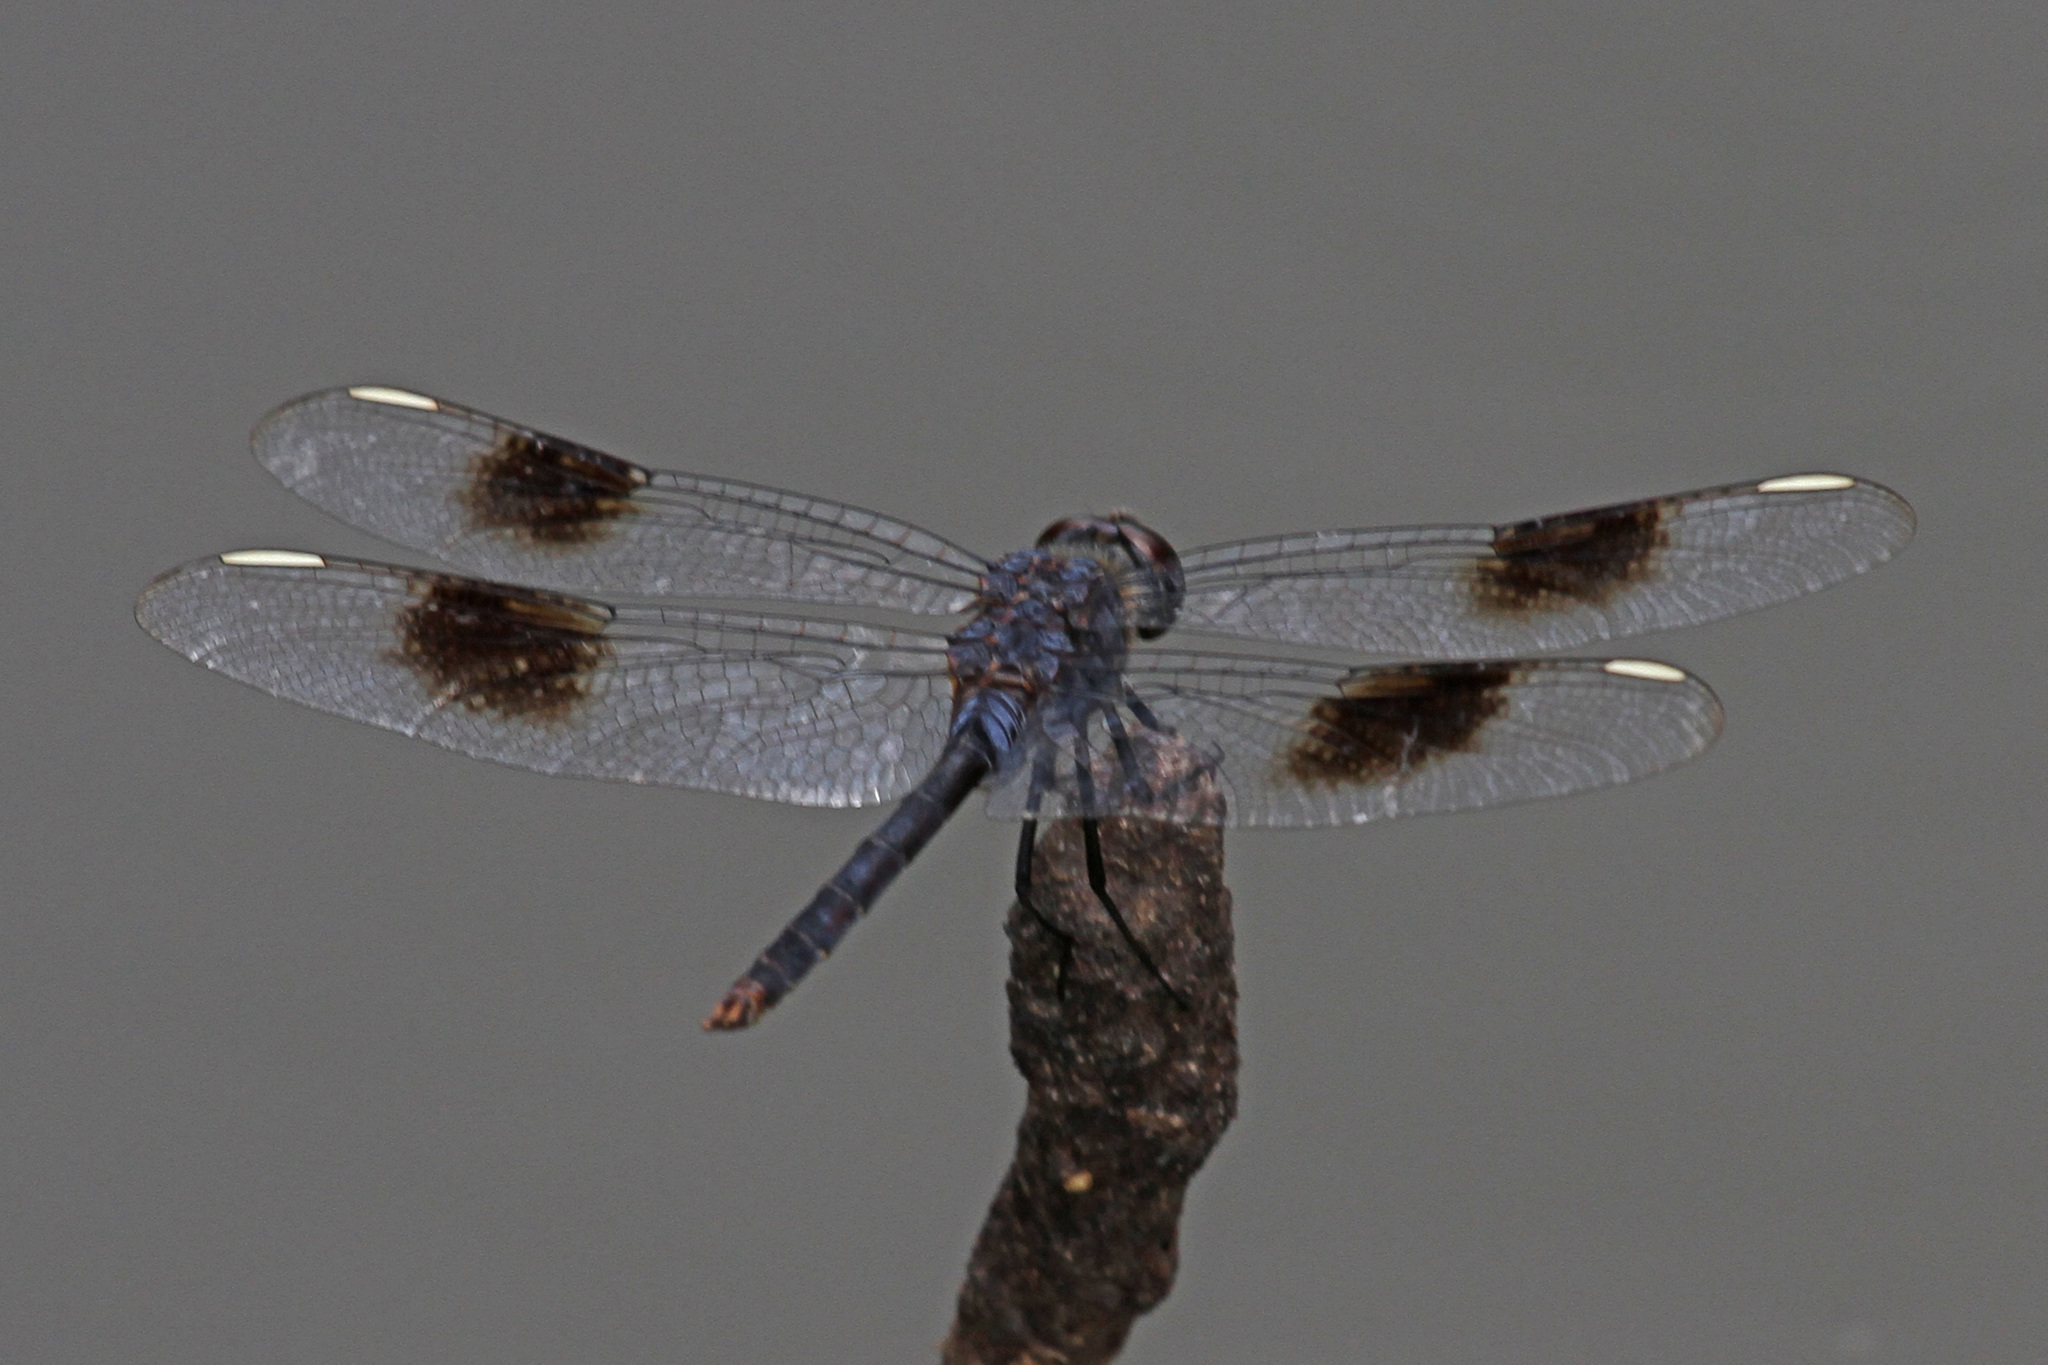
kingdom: Animalia
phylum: Arthropoda
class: Insecta
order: Odonata
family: Libellulidae
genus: Brachymesia
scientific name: Brachymesia gravida
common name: Four-spotted pennant
